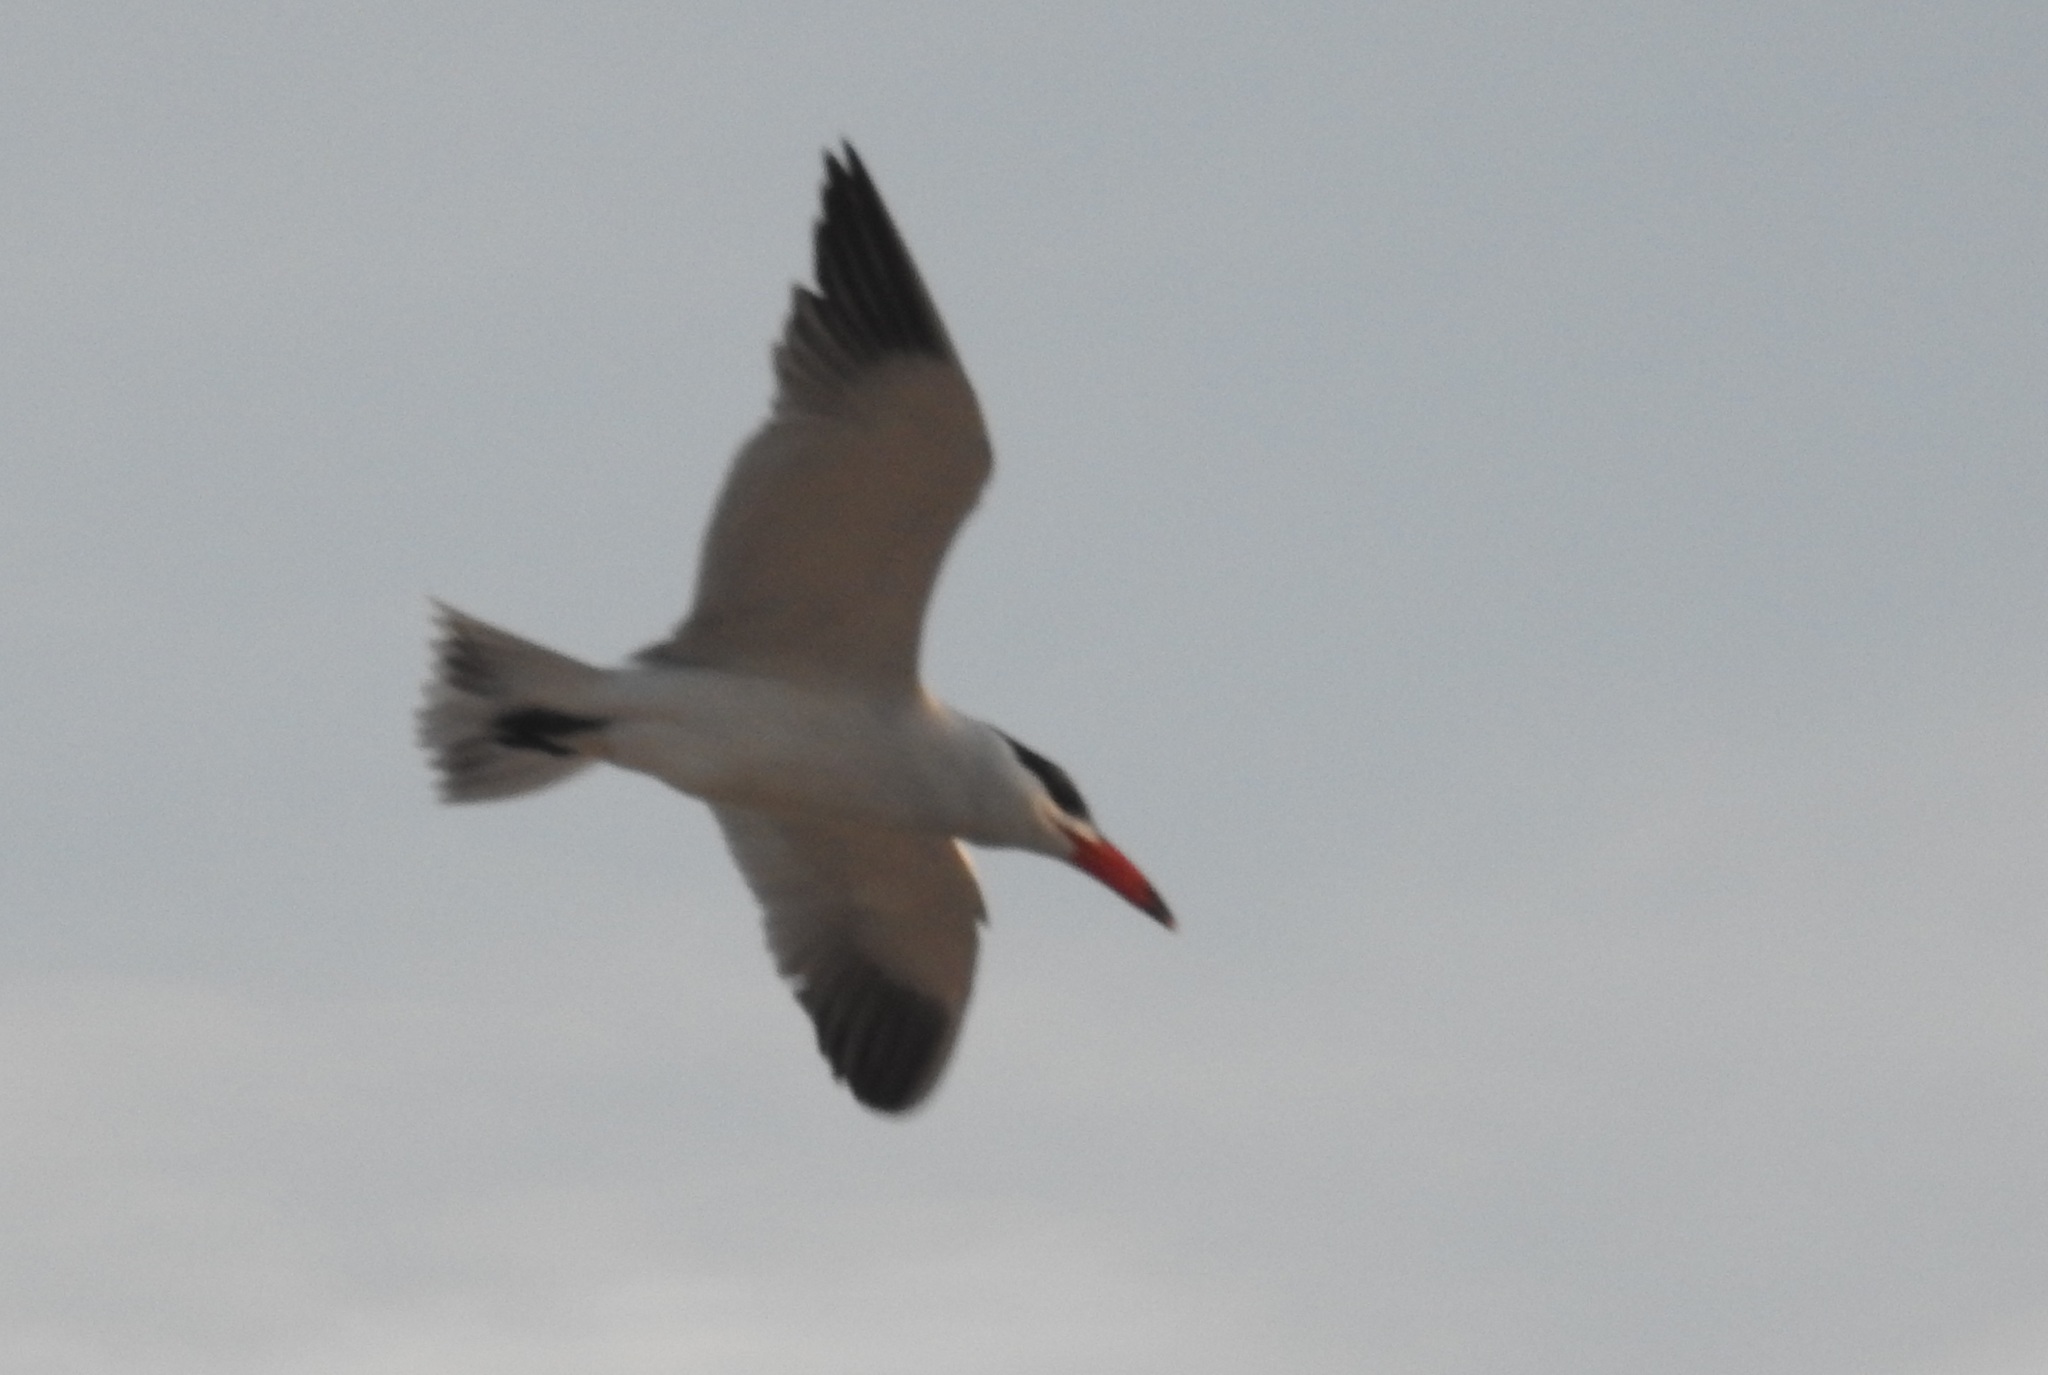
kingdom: Animalia
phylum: Chordata
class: Aves
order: Charadriiformes
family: Laridae
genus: Hydroprogne
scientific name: Hydroprogne caspia
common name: Caspian tern
